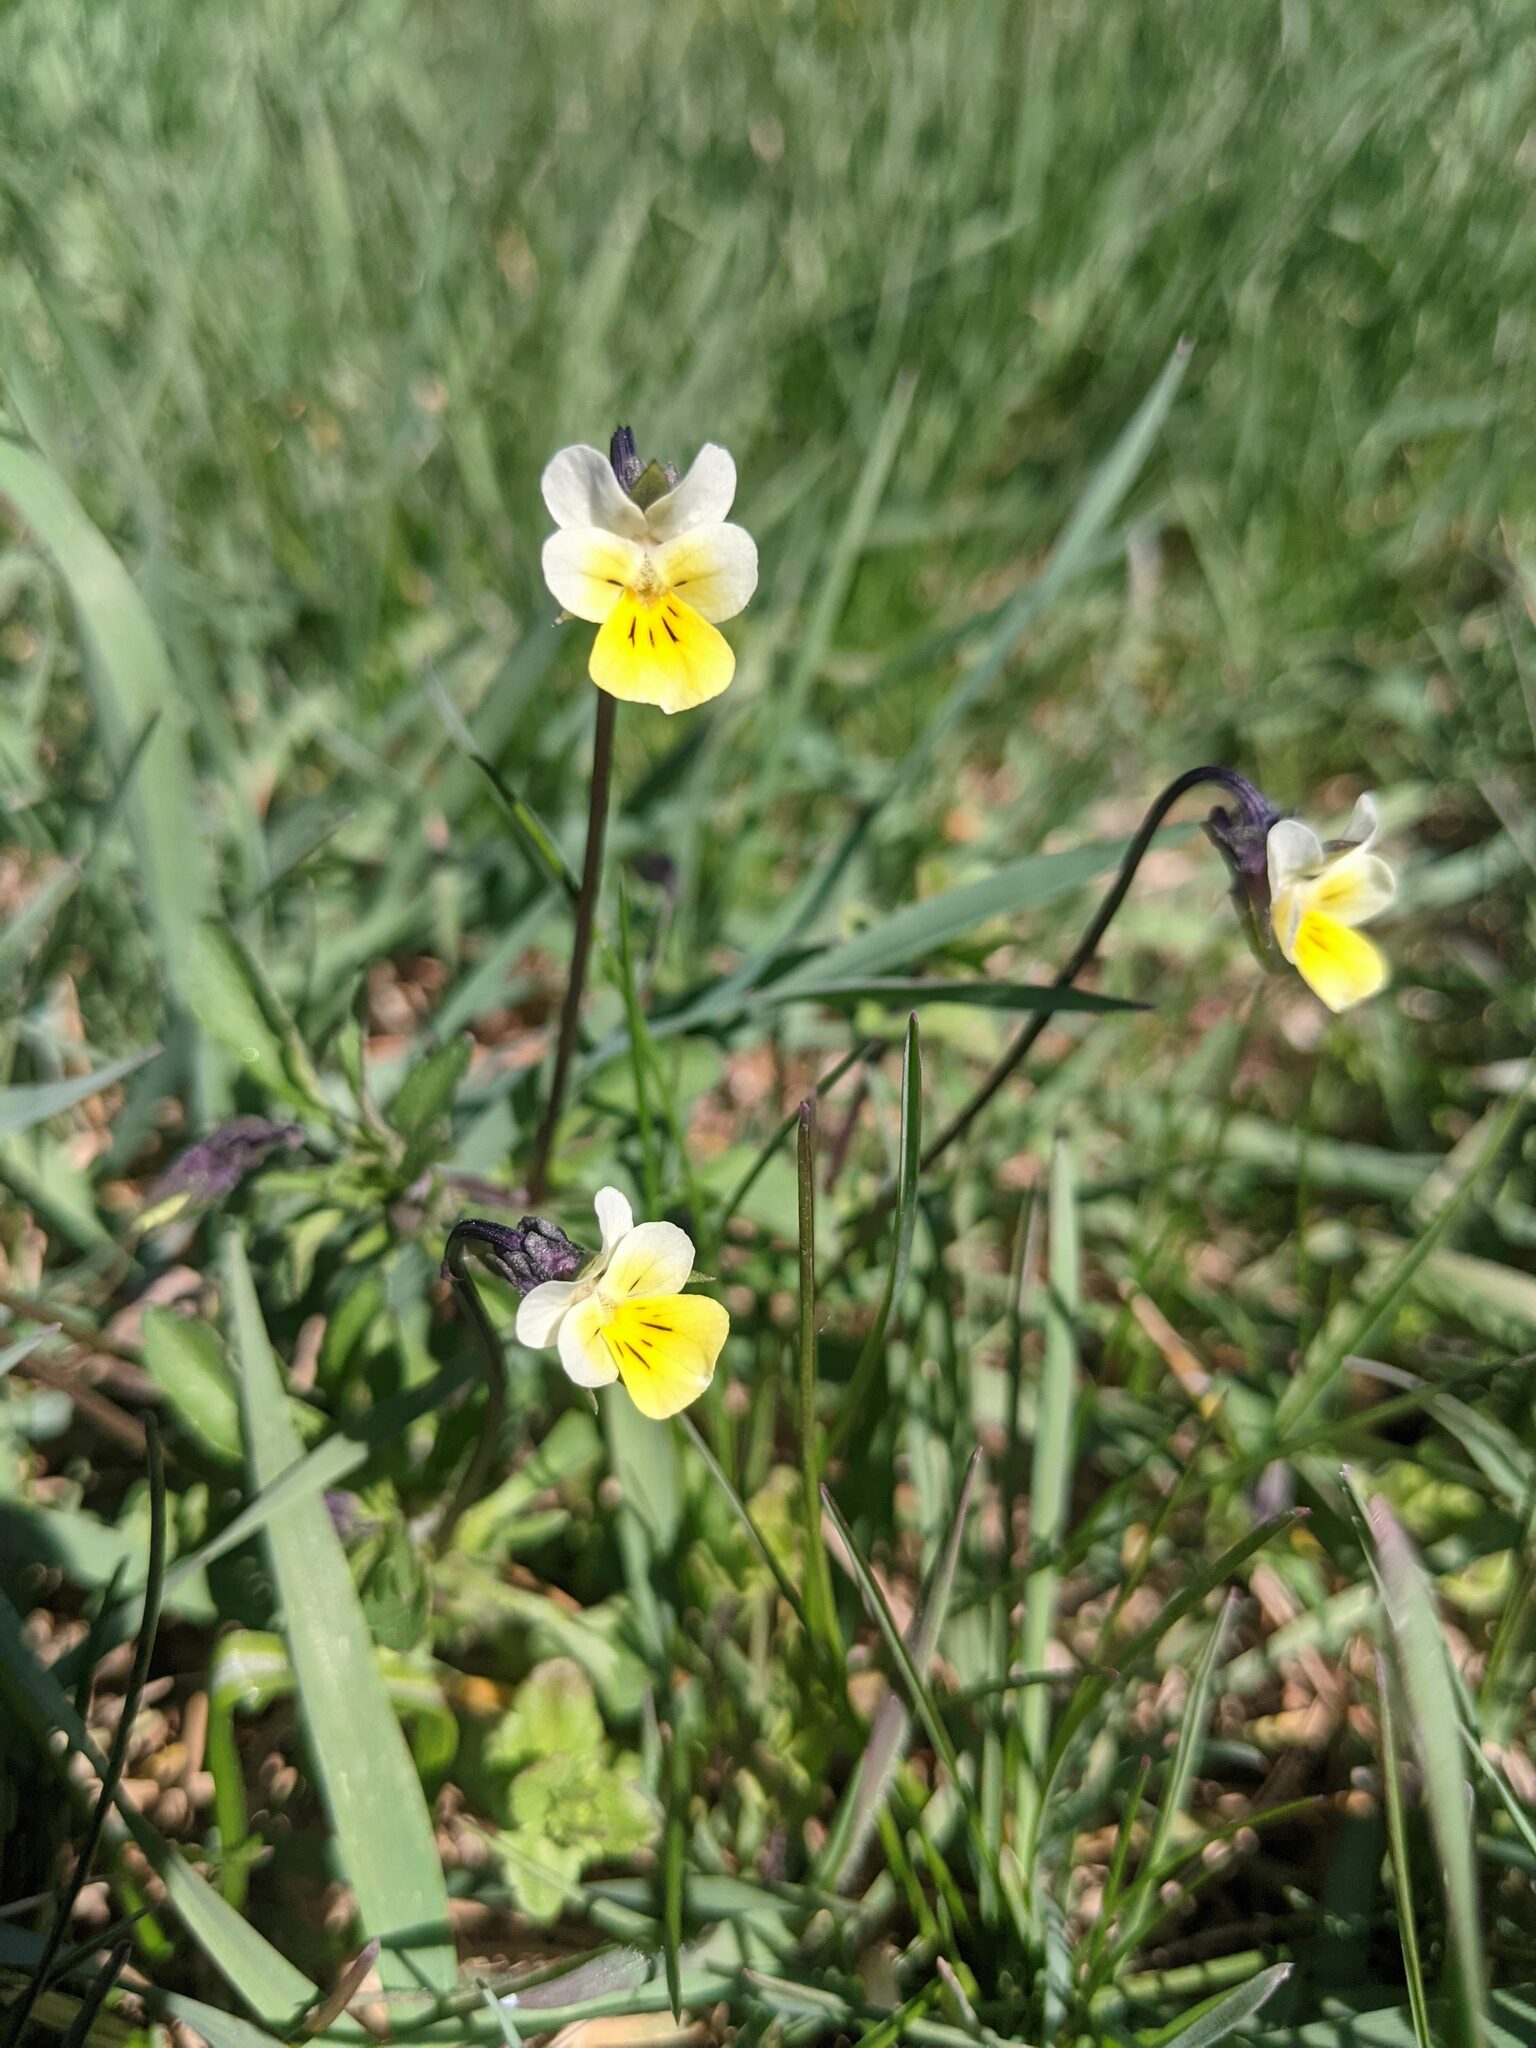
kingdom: Plantae
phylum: Tracheophyta
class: Magnoliopsida
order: Malpighiales
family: Violaceae
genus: Viola
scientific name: Viola arvensis
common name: Field pansy
